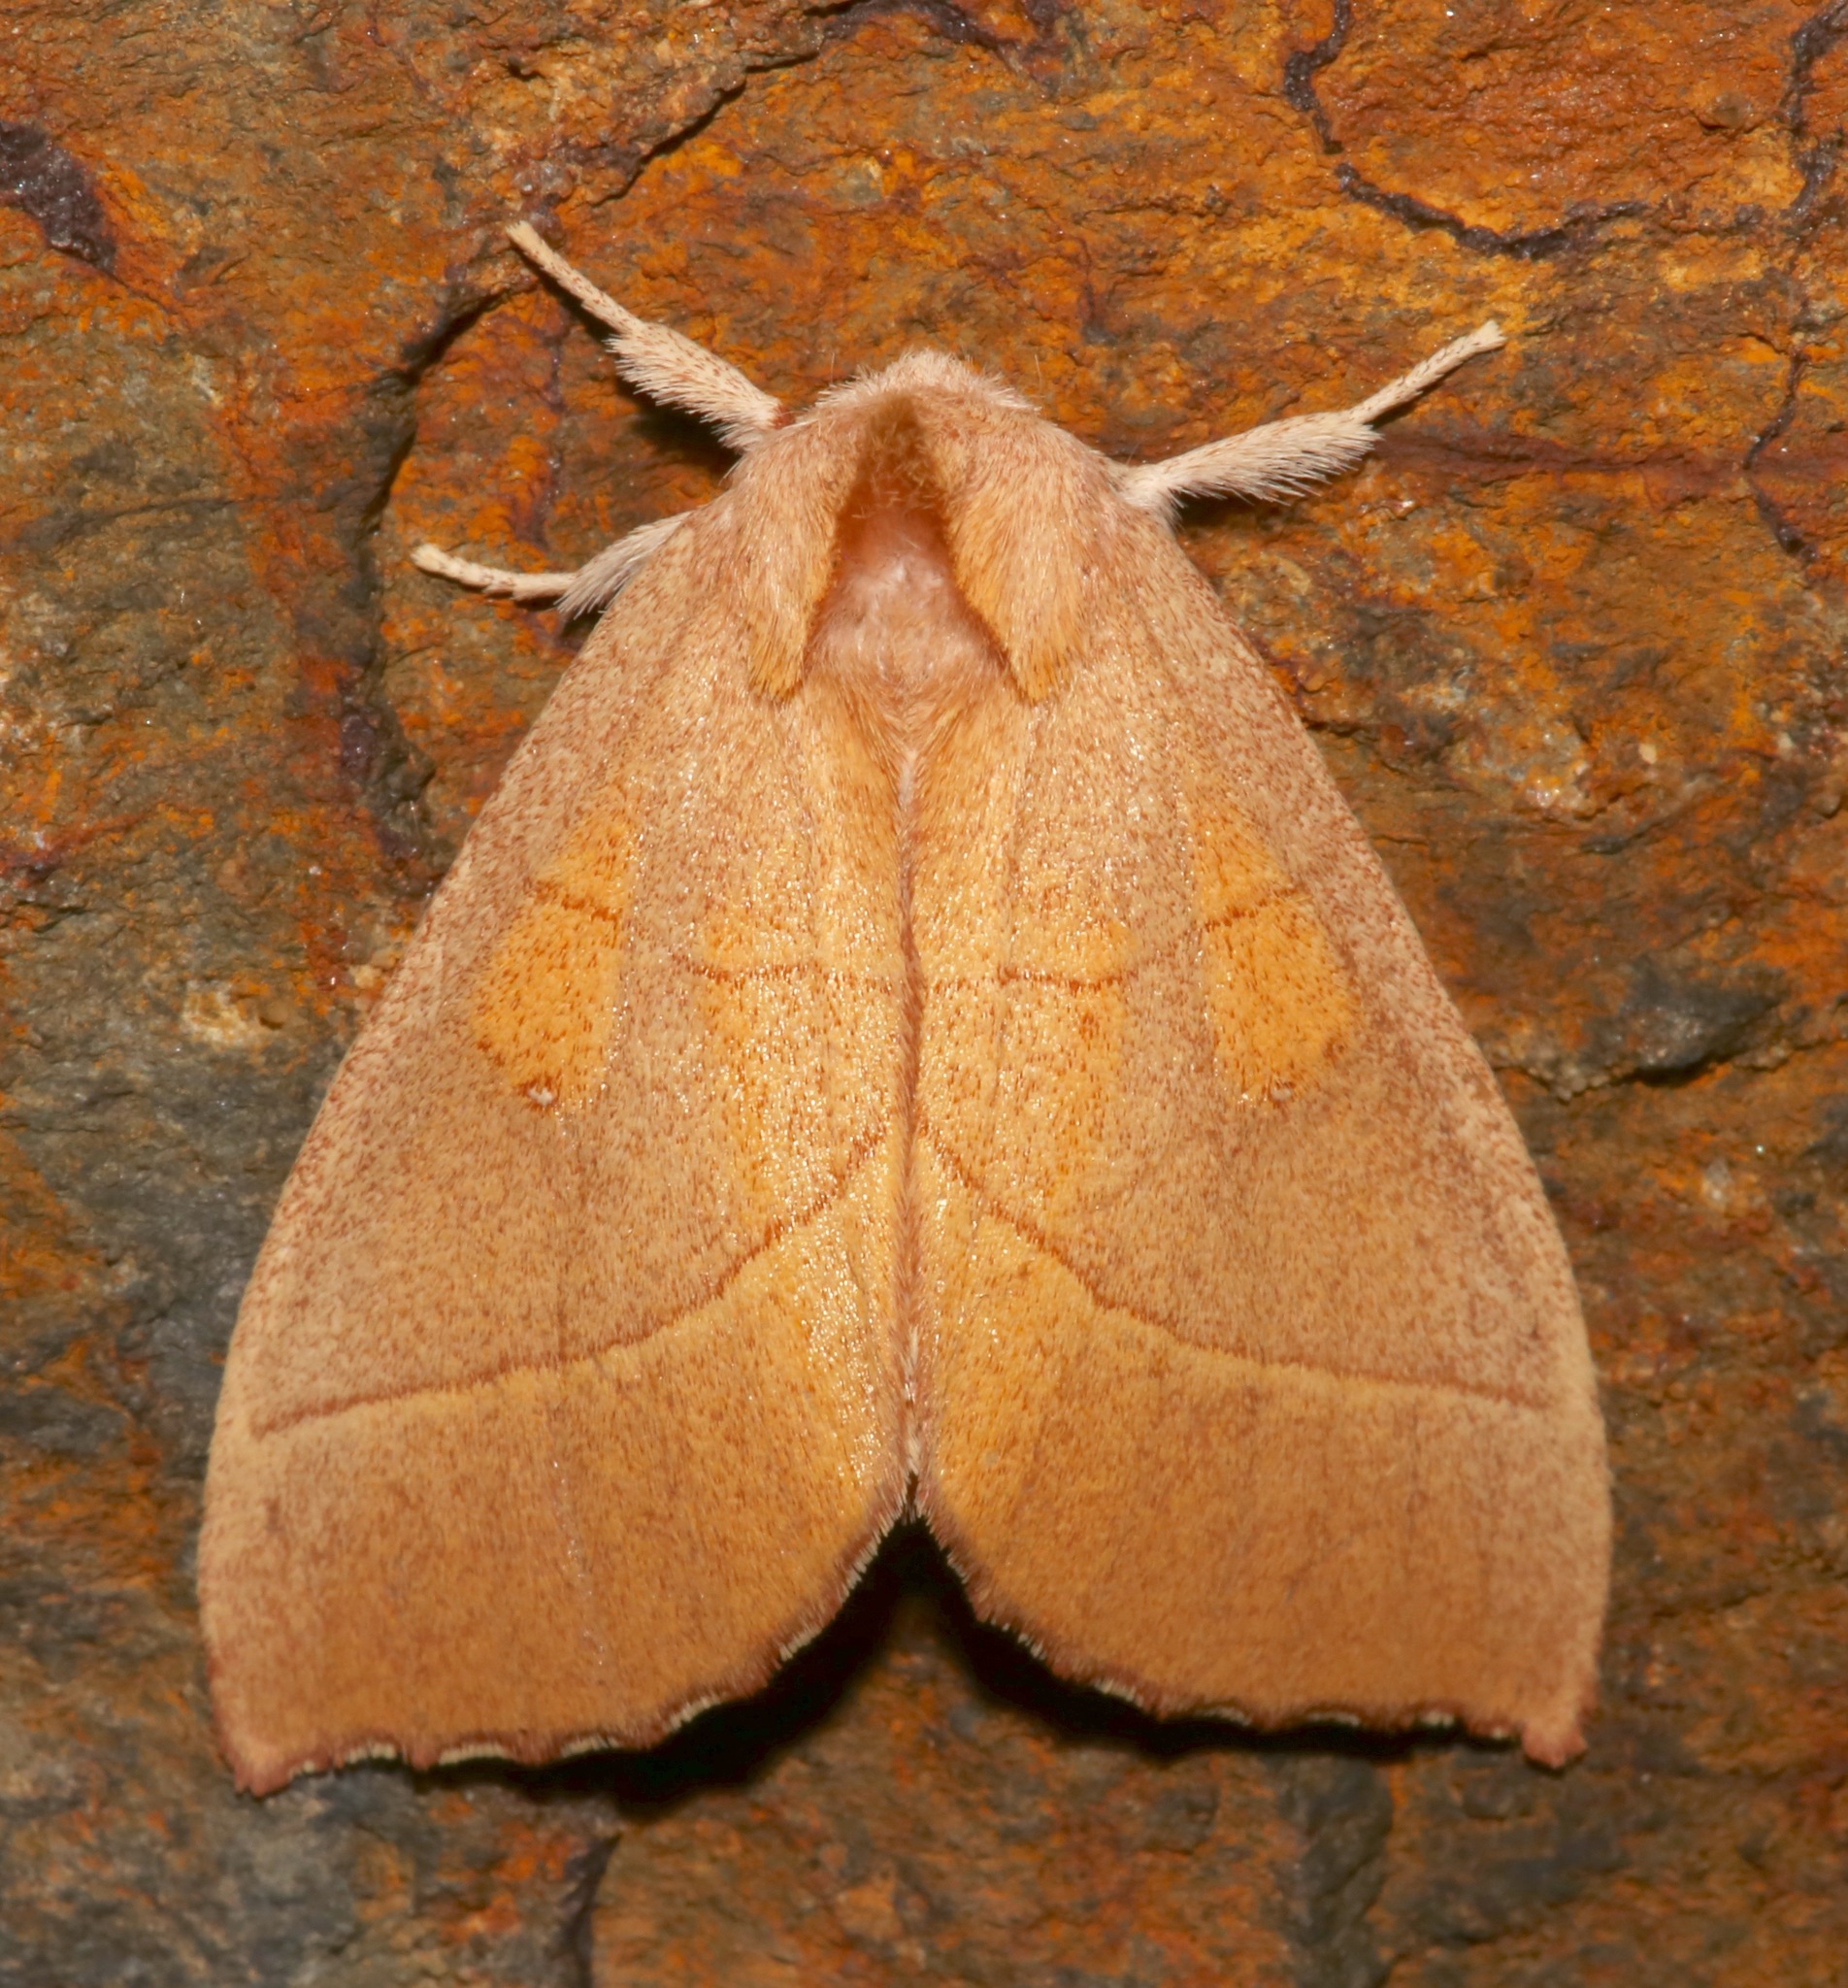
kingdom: Animalia
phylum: Arthropoda
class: Insecta
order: Lepidoptera
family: Notodontidae
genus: Nadata
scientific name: Nadata gibbosa
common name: White-dotted prominent
